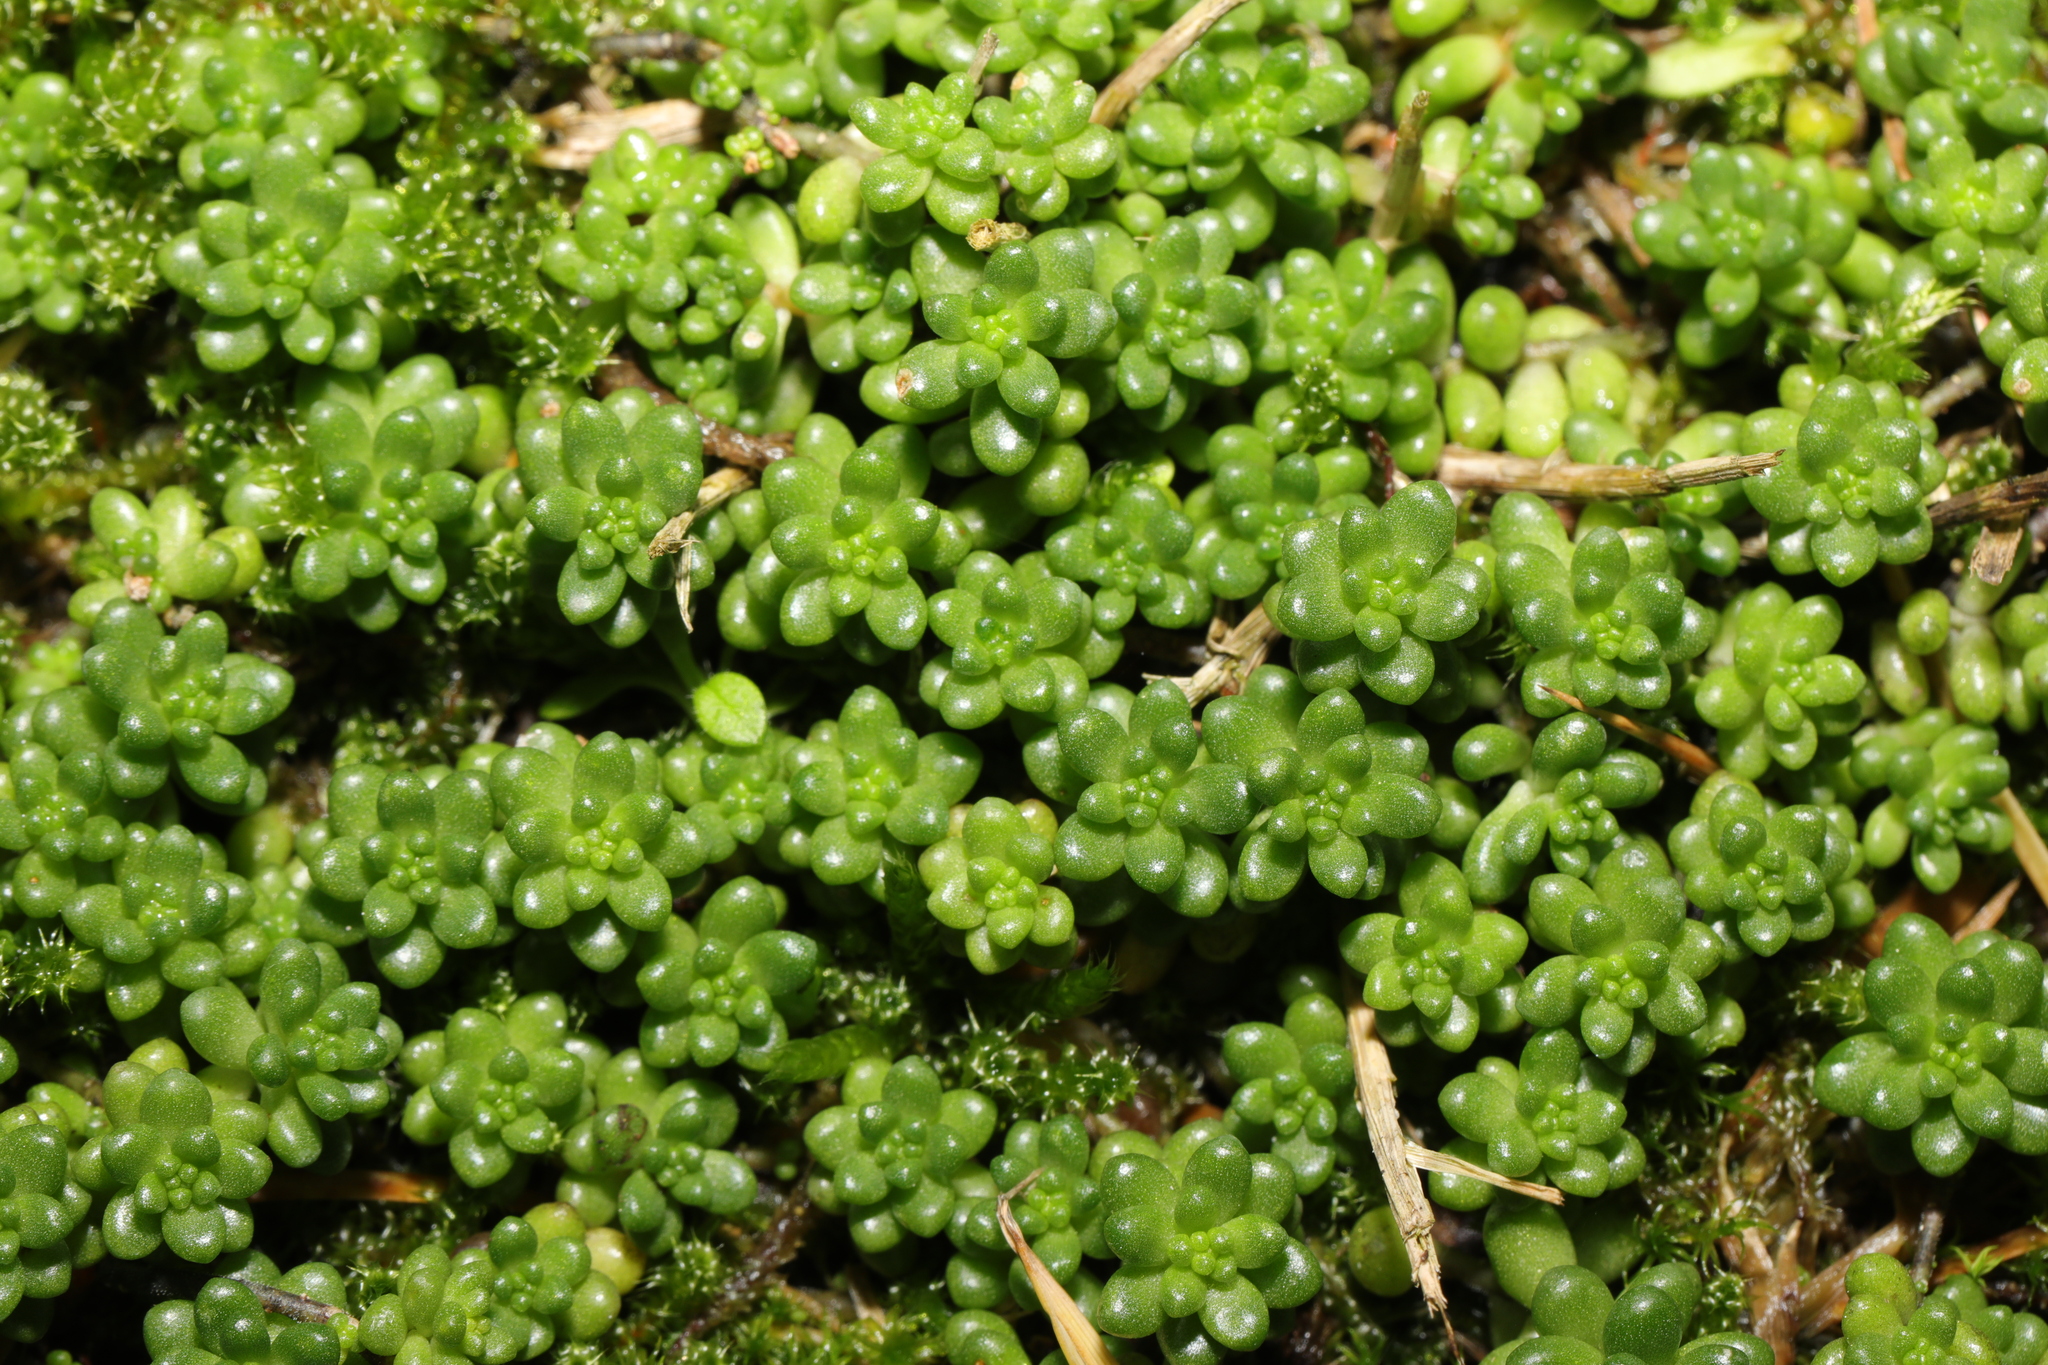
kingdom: Plantae
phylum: Tracheophyta
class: Magnoliopsida
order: Saxifragales
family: Crassulaceae
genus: Sedum
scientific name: Sedum album
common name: White stonecrop
